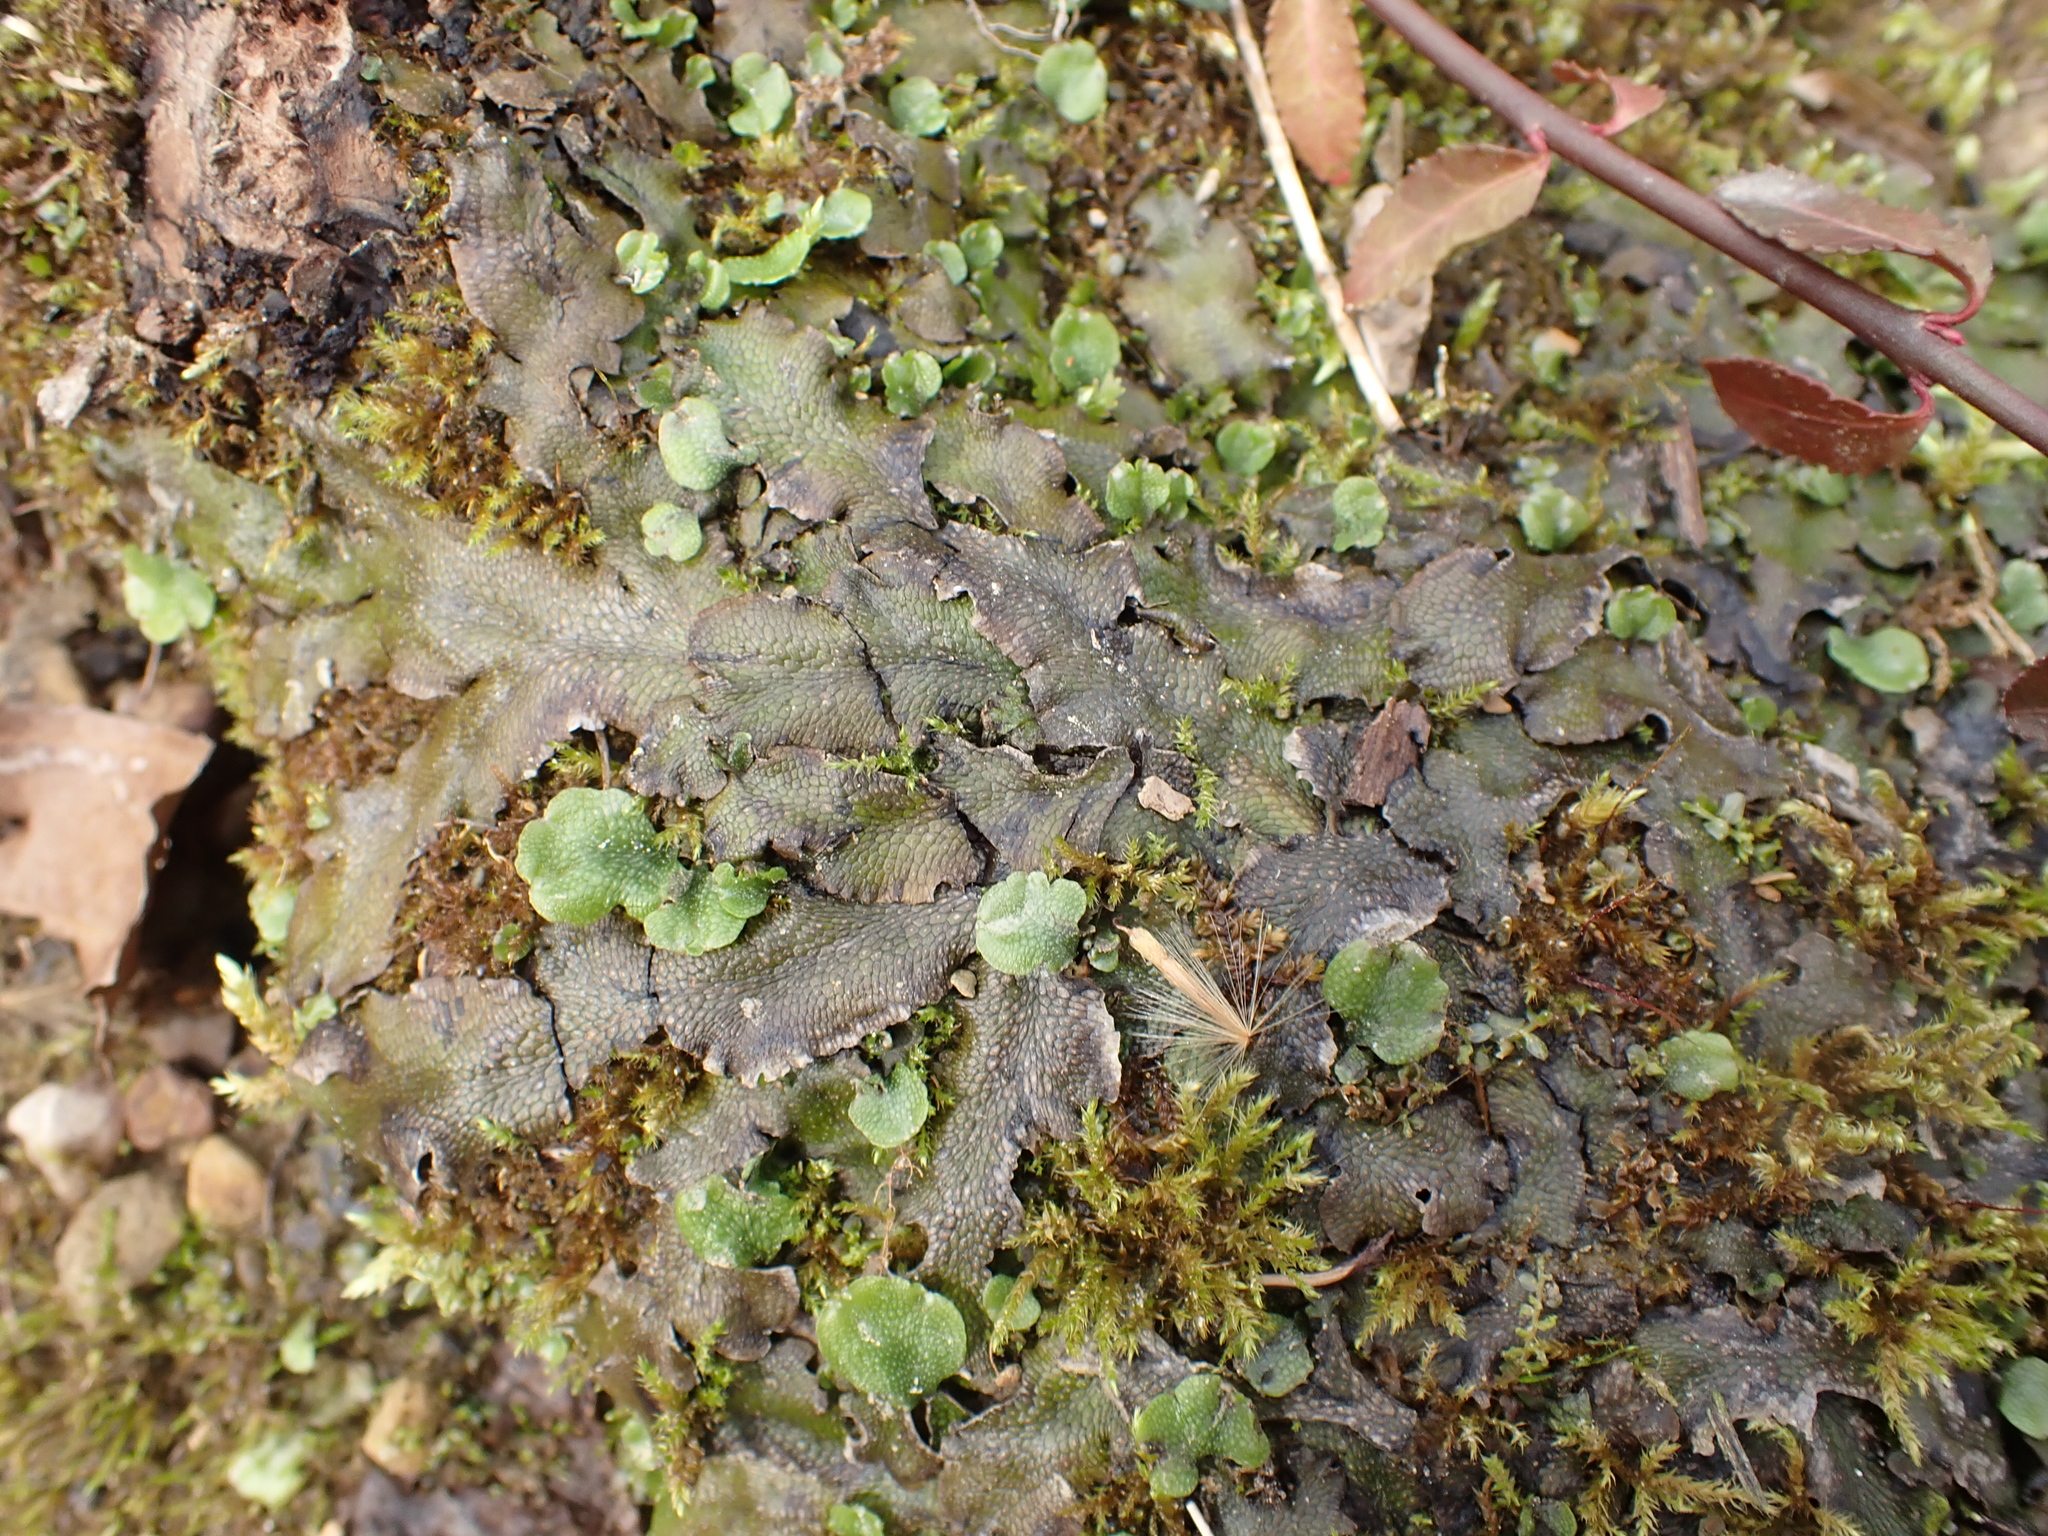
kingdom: Plantae
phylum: Marchantiophyta
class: Marchantiopsida
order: Marchantiales
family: Conocephalaceae
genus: Conocephalum
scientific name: Conocephalum salebrosum
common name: Cat-tongue liverwort
